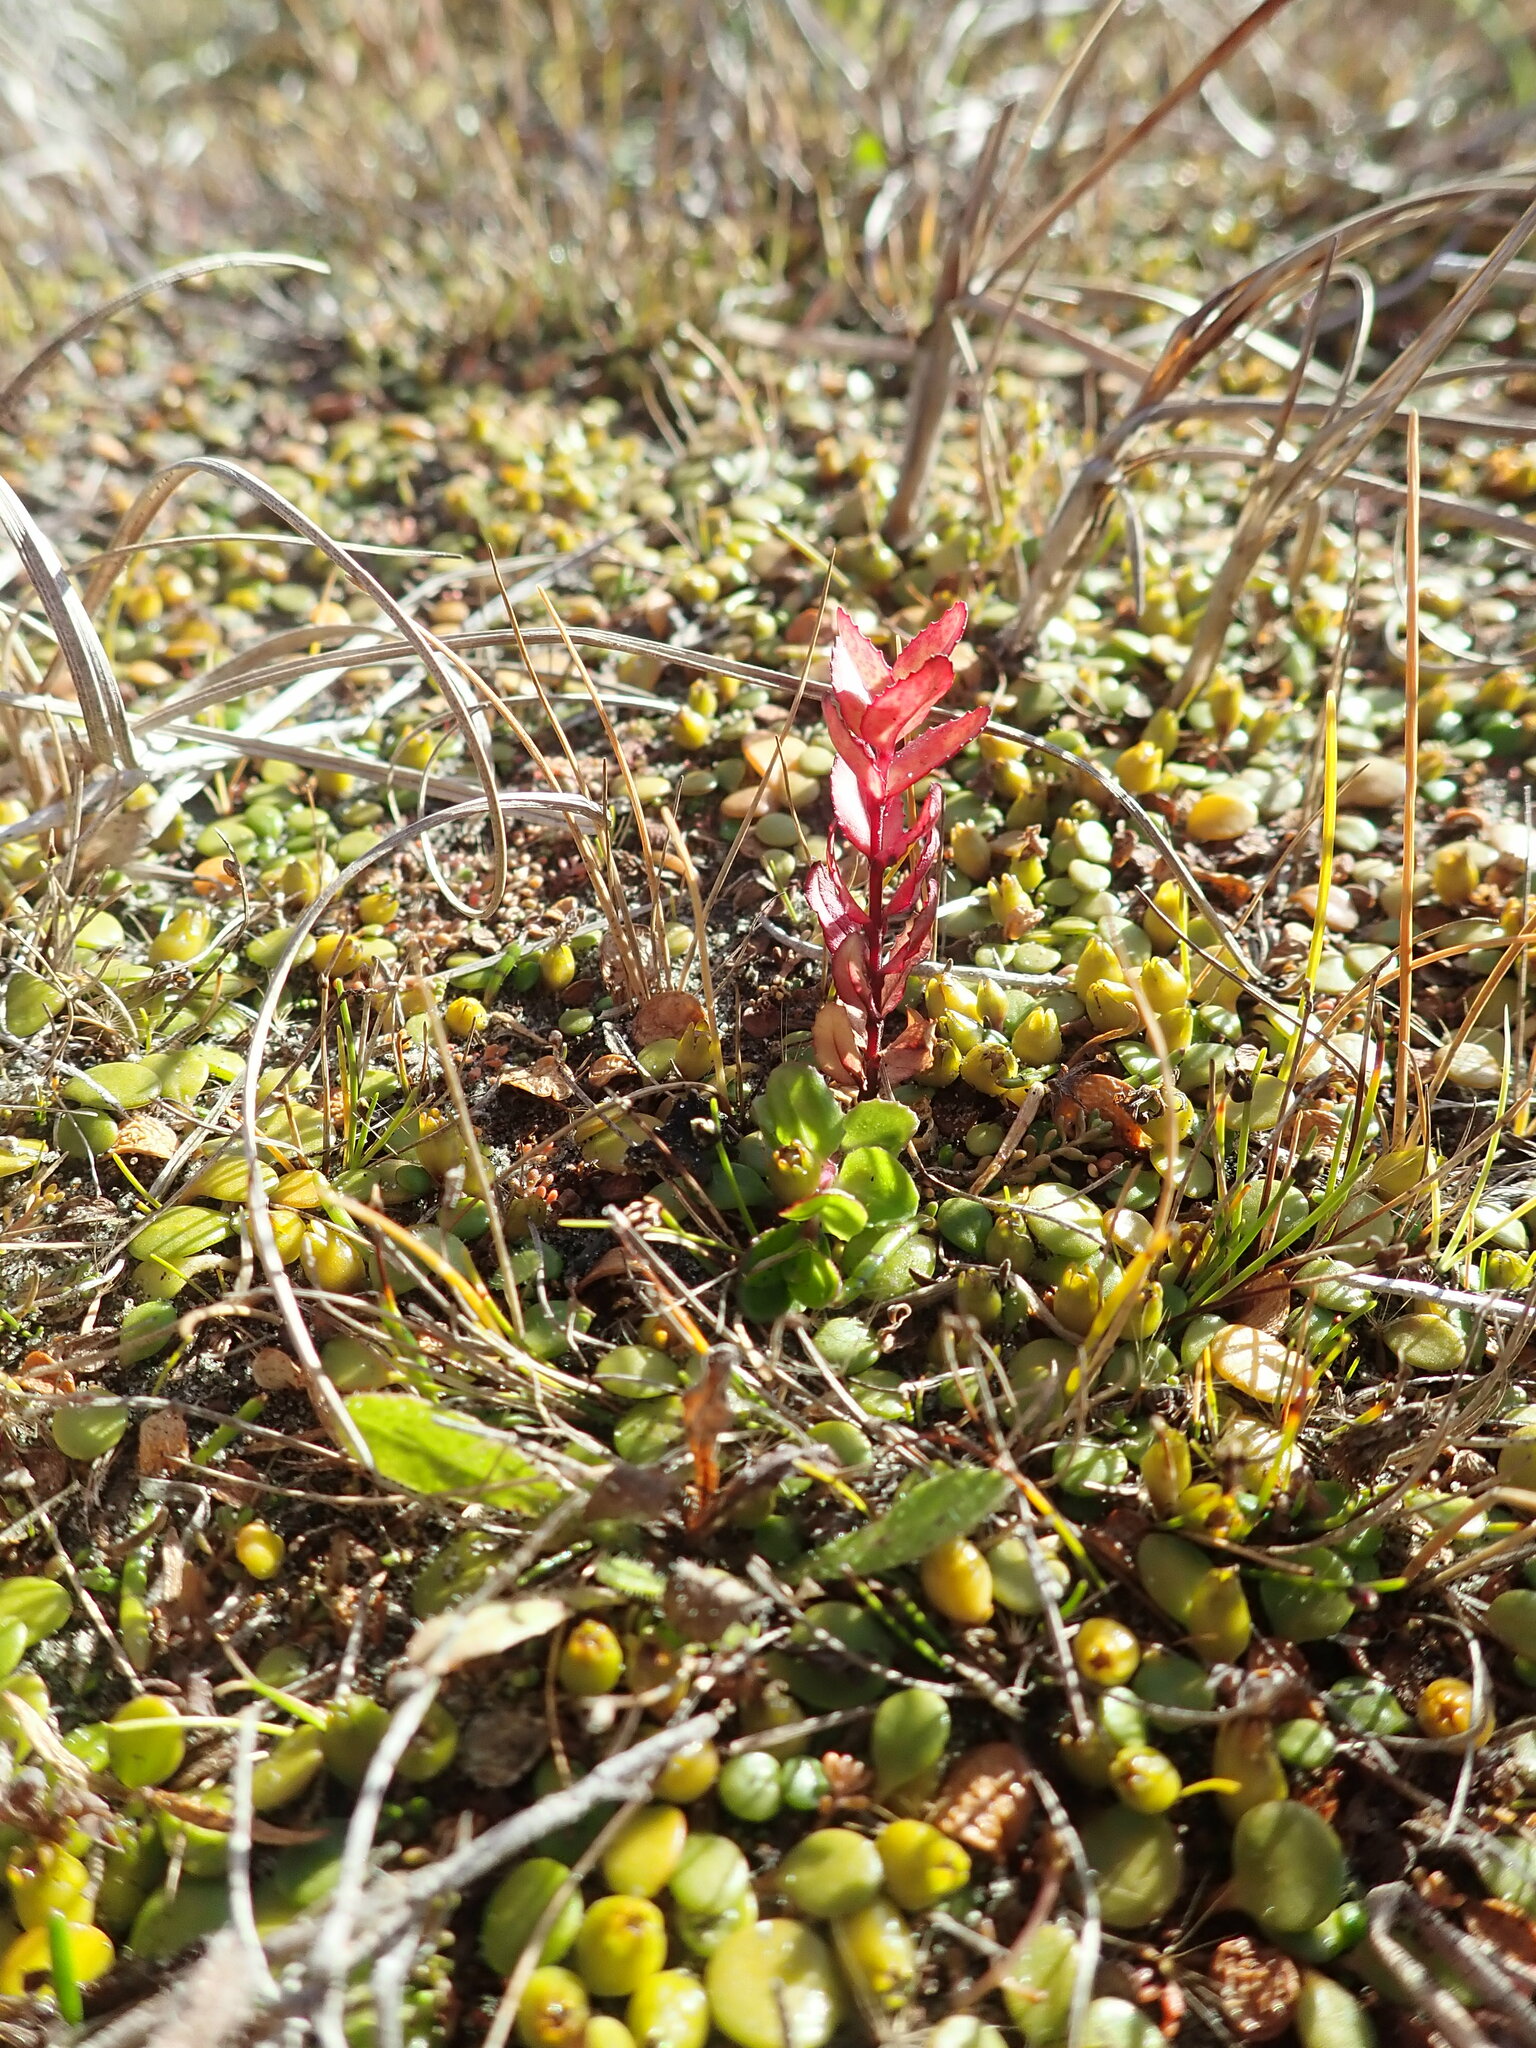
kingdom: Plantae
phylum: Tracheophyta
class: Magnoliopsida
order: Myrtales
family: Onagraceae
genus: Epilobium
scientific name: Epilobium billardiereanum
